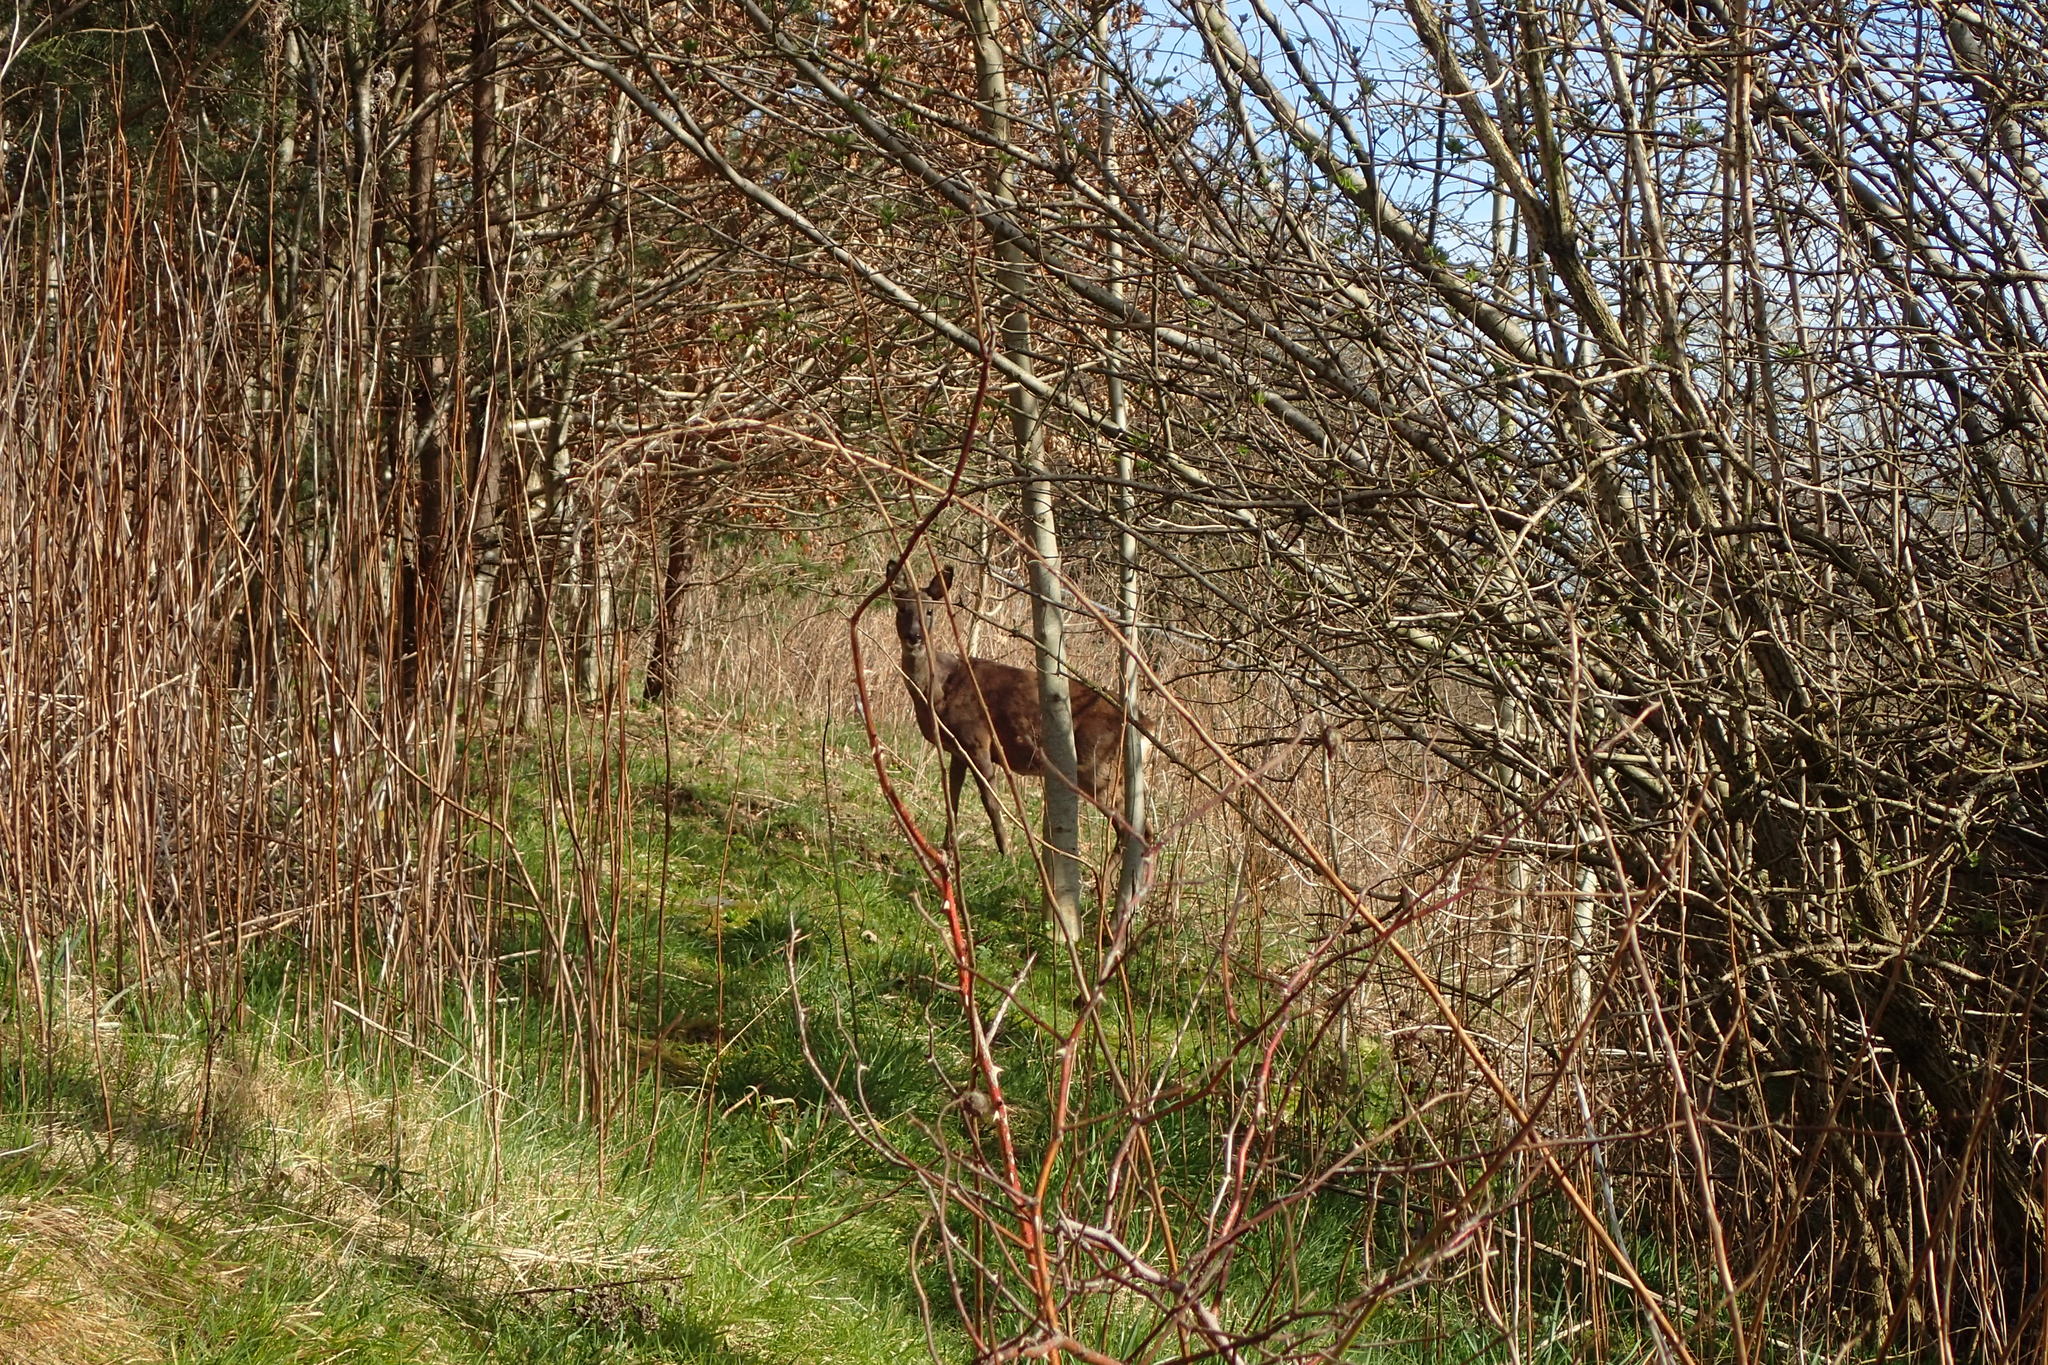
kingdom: Animalia
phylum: Chordata
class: Mammalia
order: Artiodactyla
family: Cervidae
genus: Capreolus
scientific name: Capreolus capreolus
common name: Western roe deer
